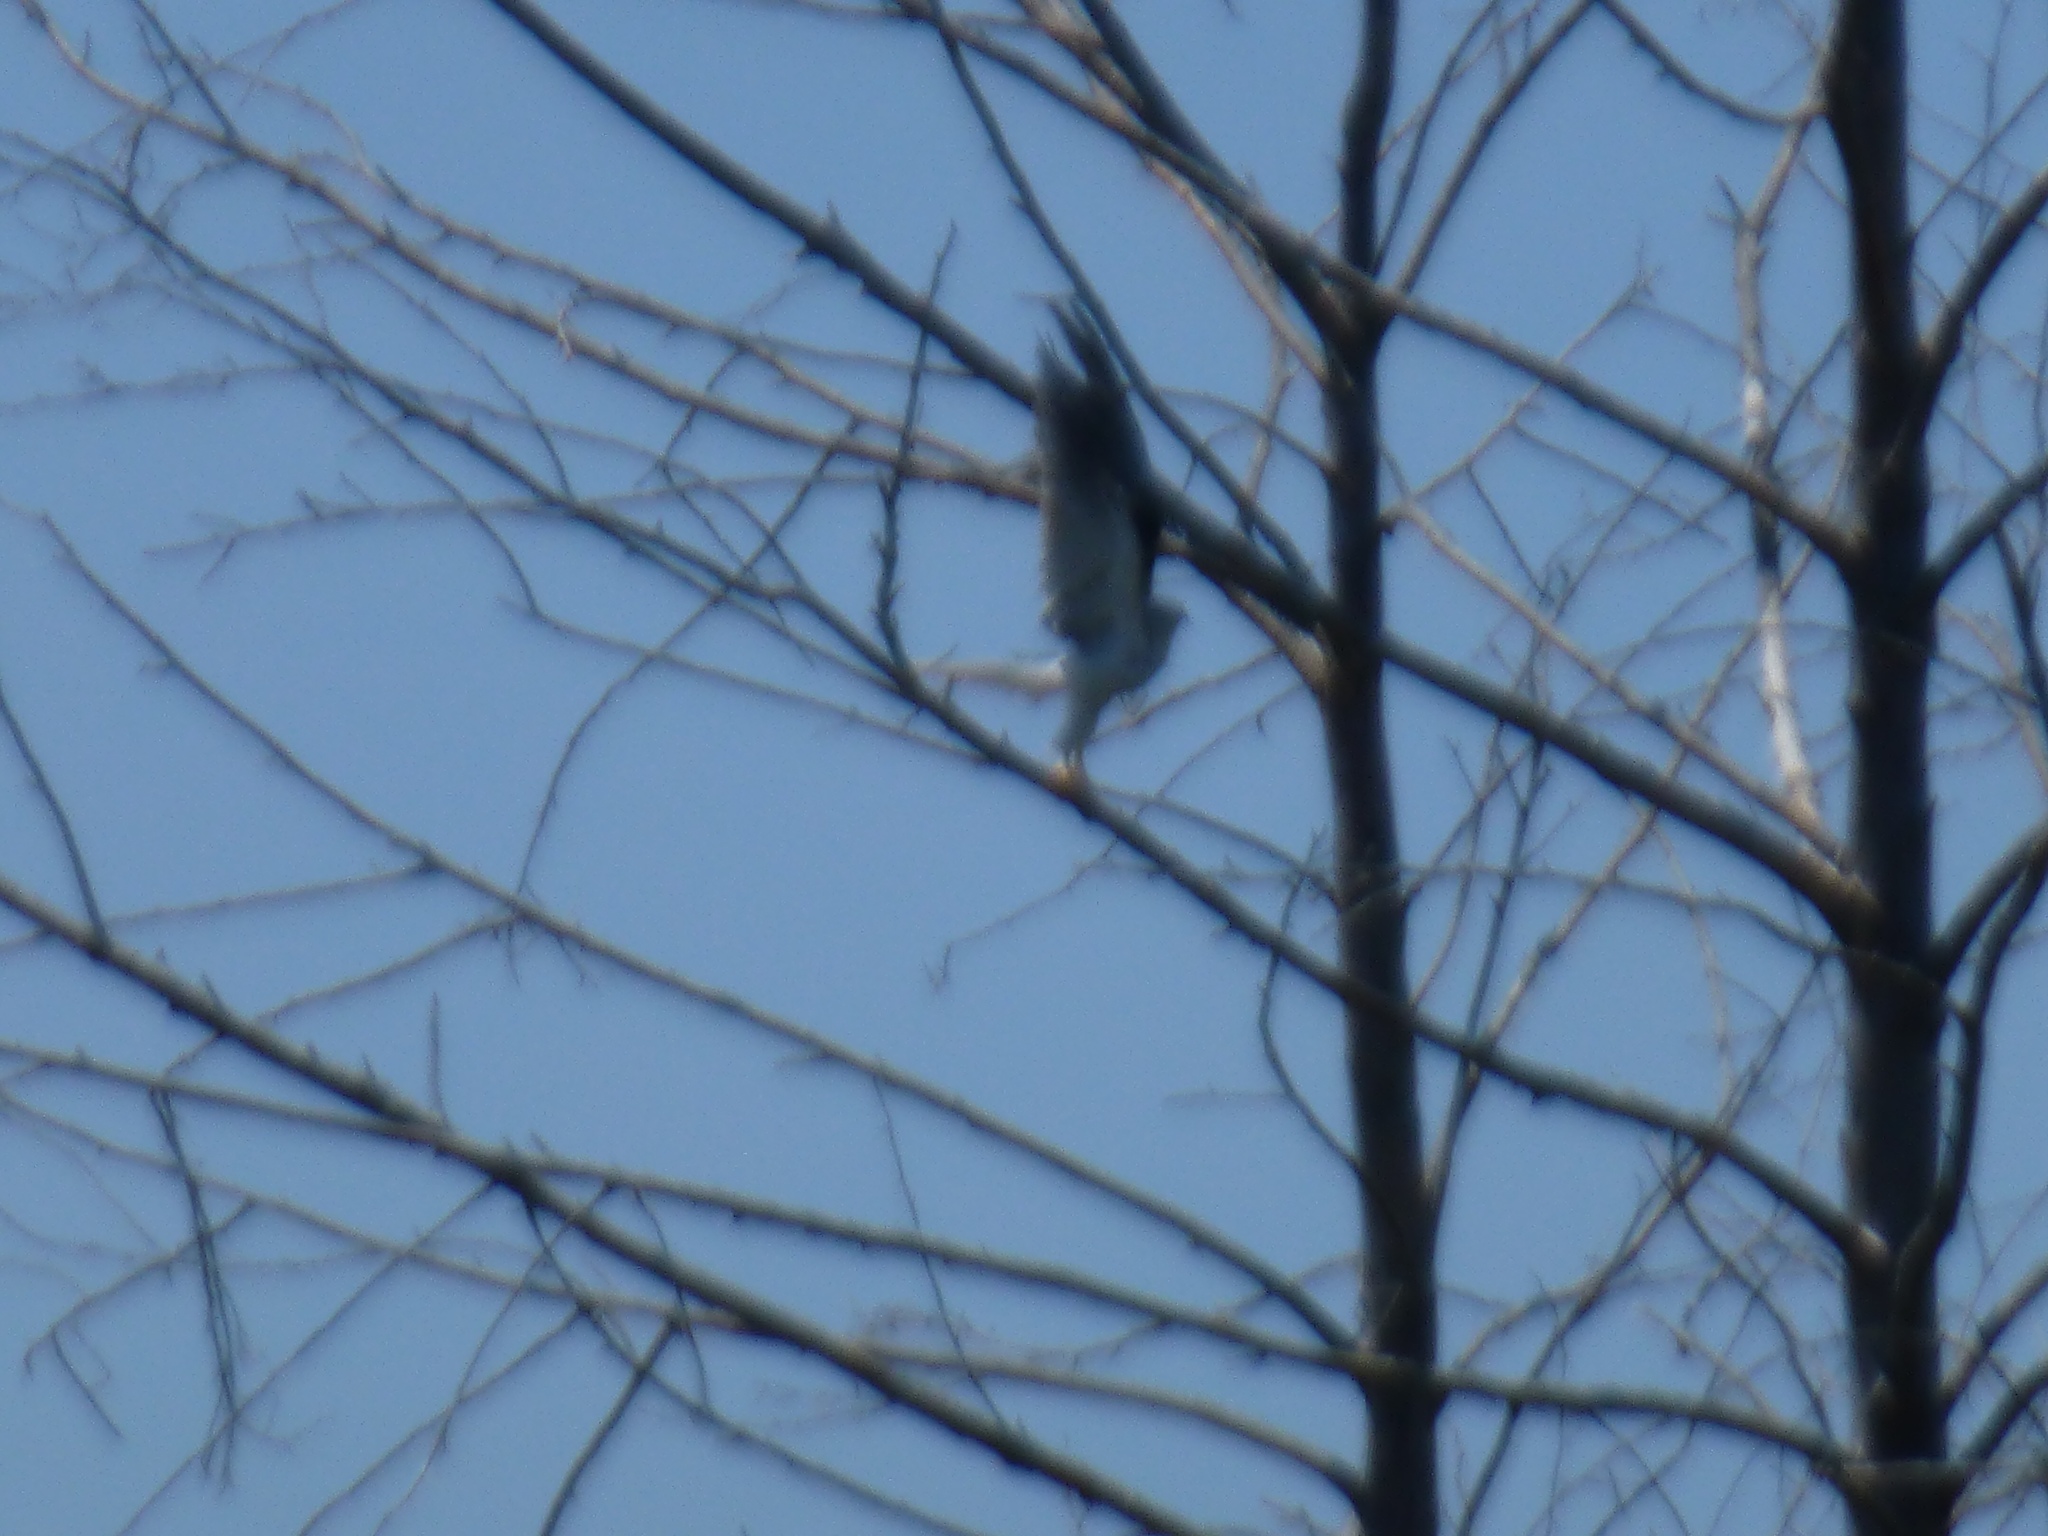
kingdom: Animalia
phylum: Chordata
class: Aves
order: Accipitriformes
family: Accipitridae
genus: Elanus
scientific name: Elanus leucurus
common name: White-tailed kite
